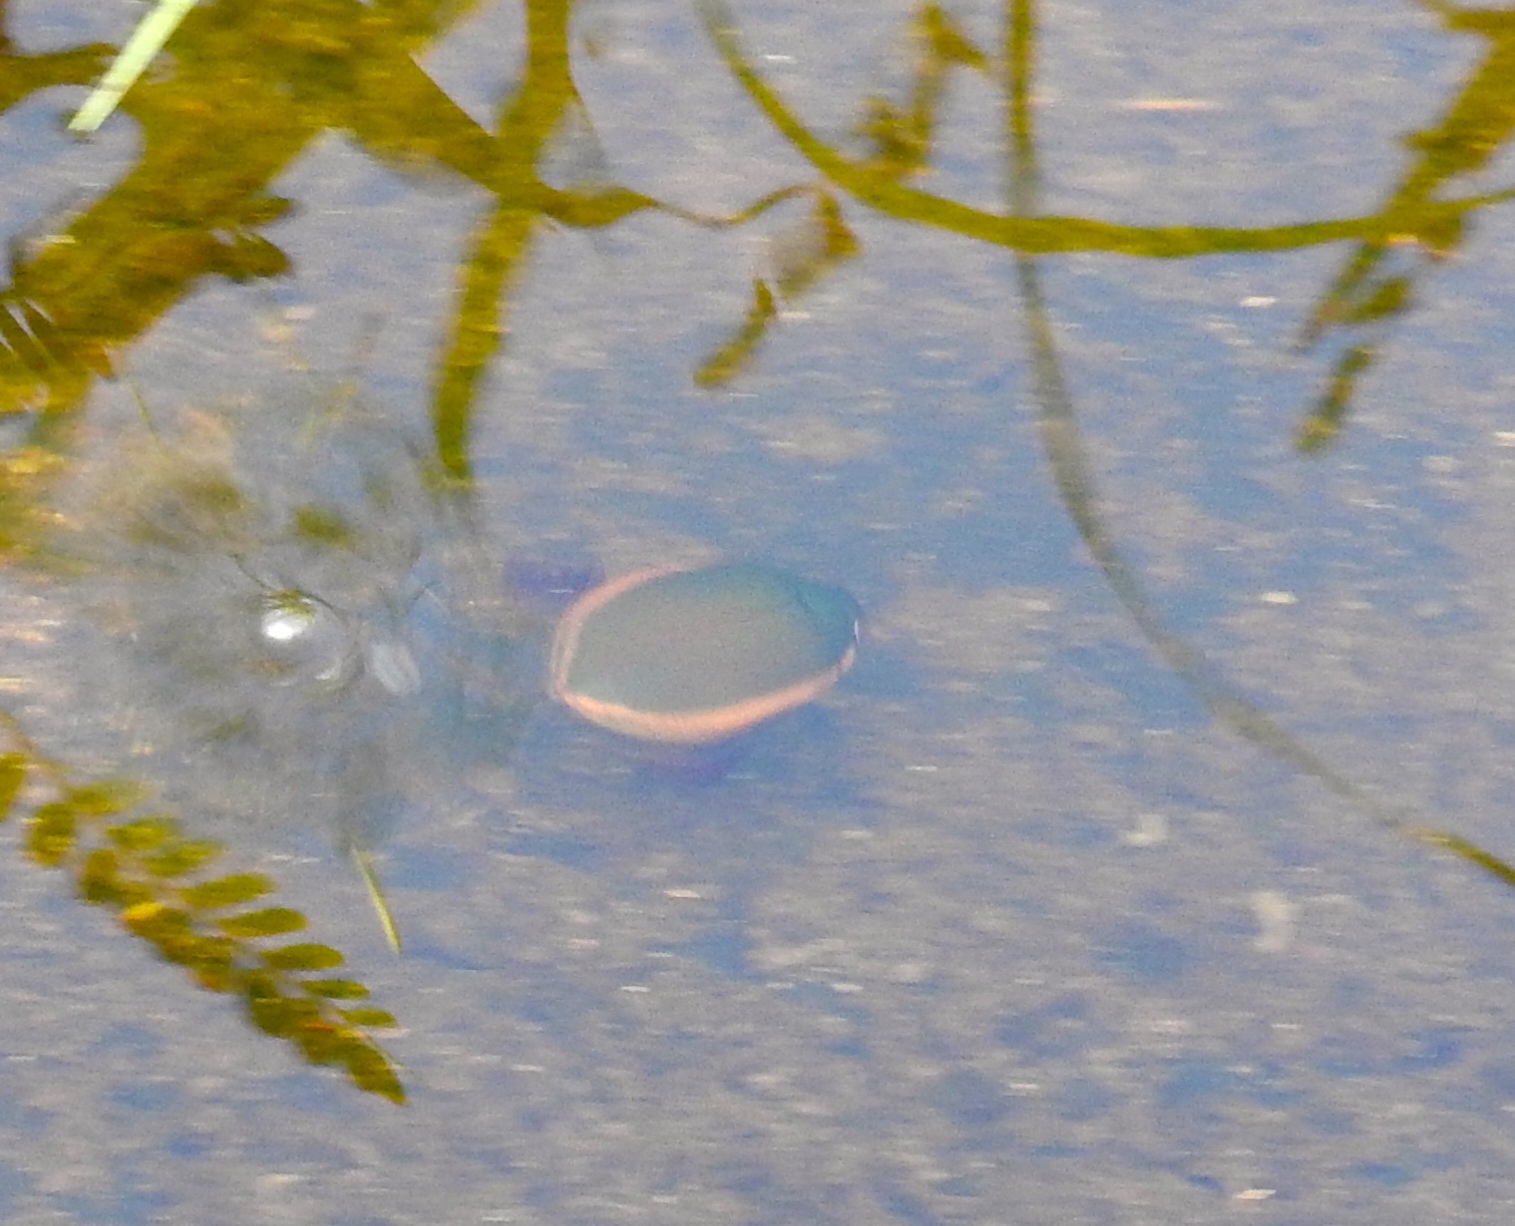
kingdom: Animalia
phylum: Arthropoda
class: Insecta
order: Coleoptera
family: Dytiscidae
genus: Cybister
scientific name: Cybister
